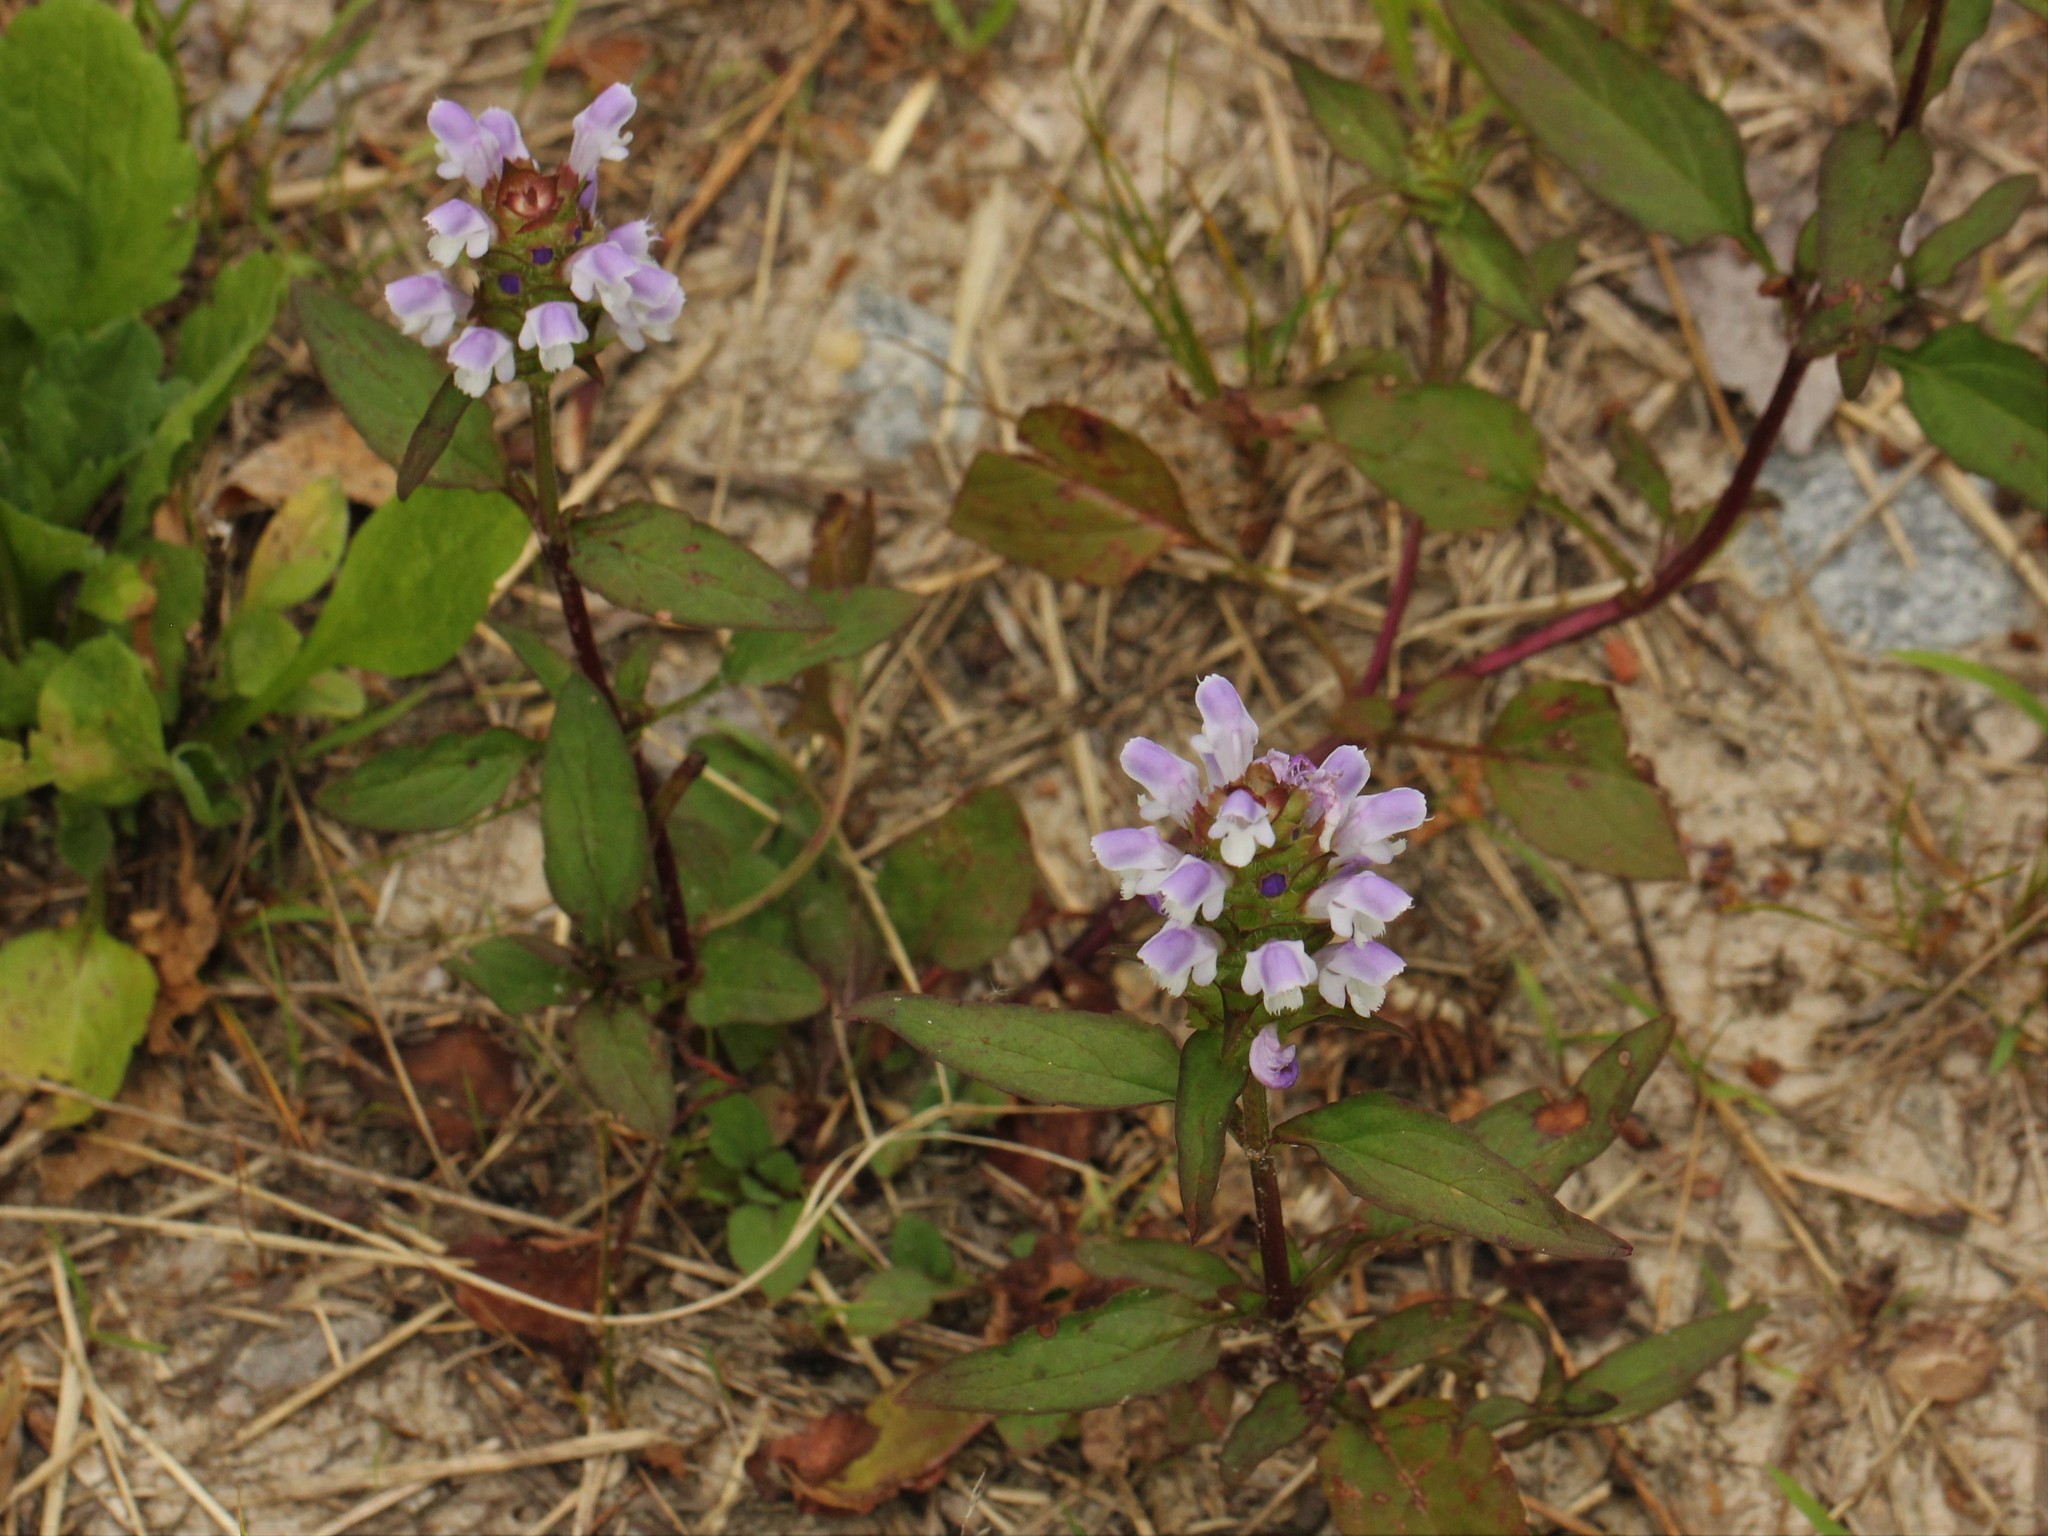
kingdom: Plantae
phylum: Tracheophyta
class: Magnoliopsida
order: Lamiales
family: Lamiaceae
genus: Prunella
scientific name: Prunella vulgaris
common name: Heal-all
